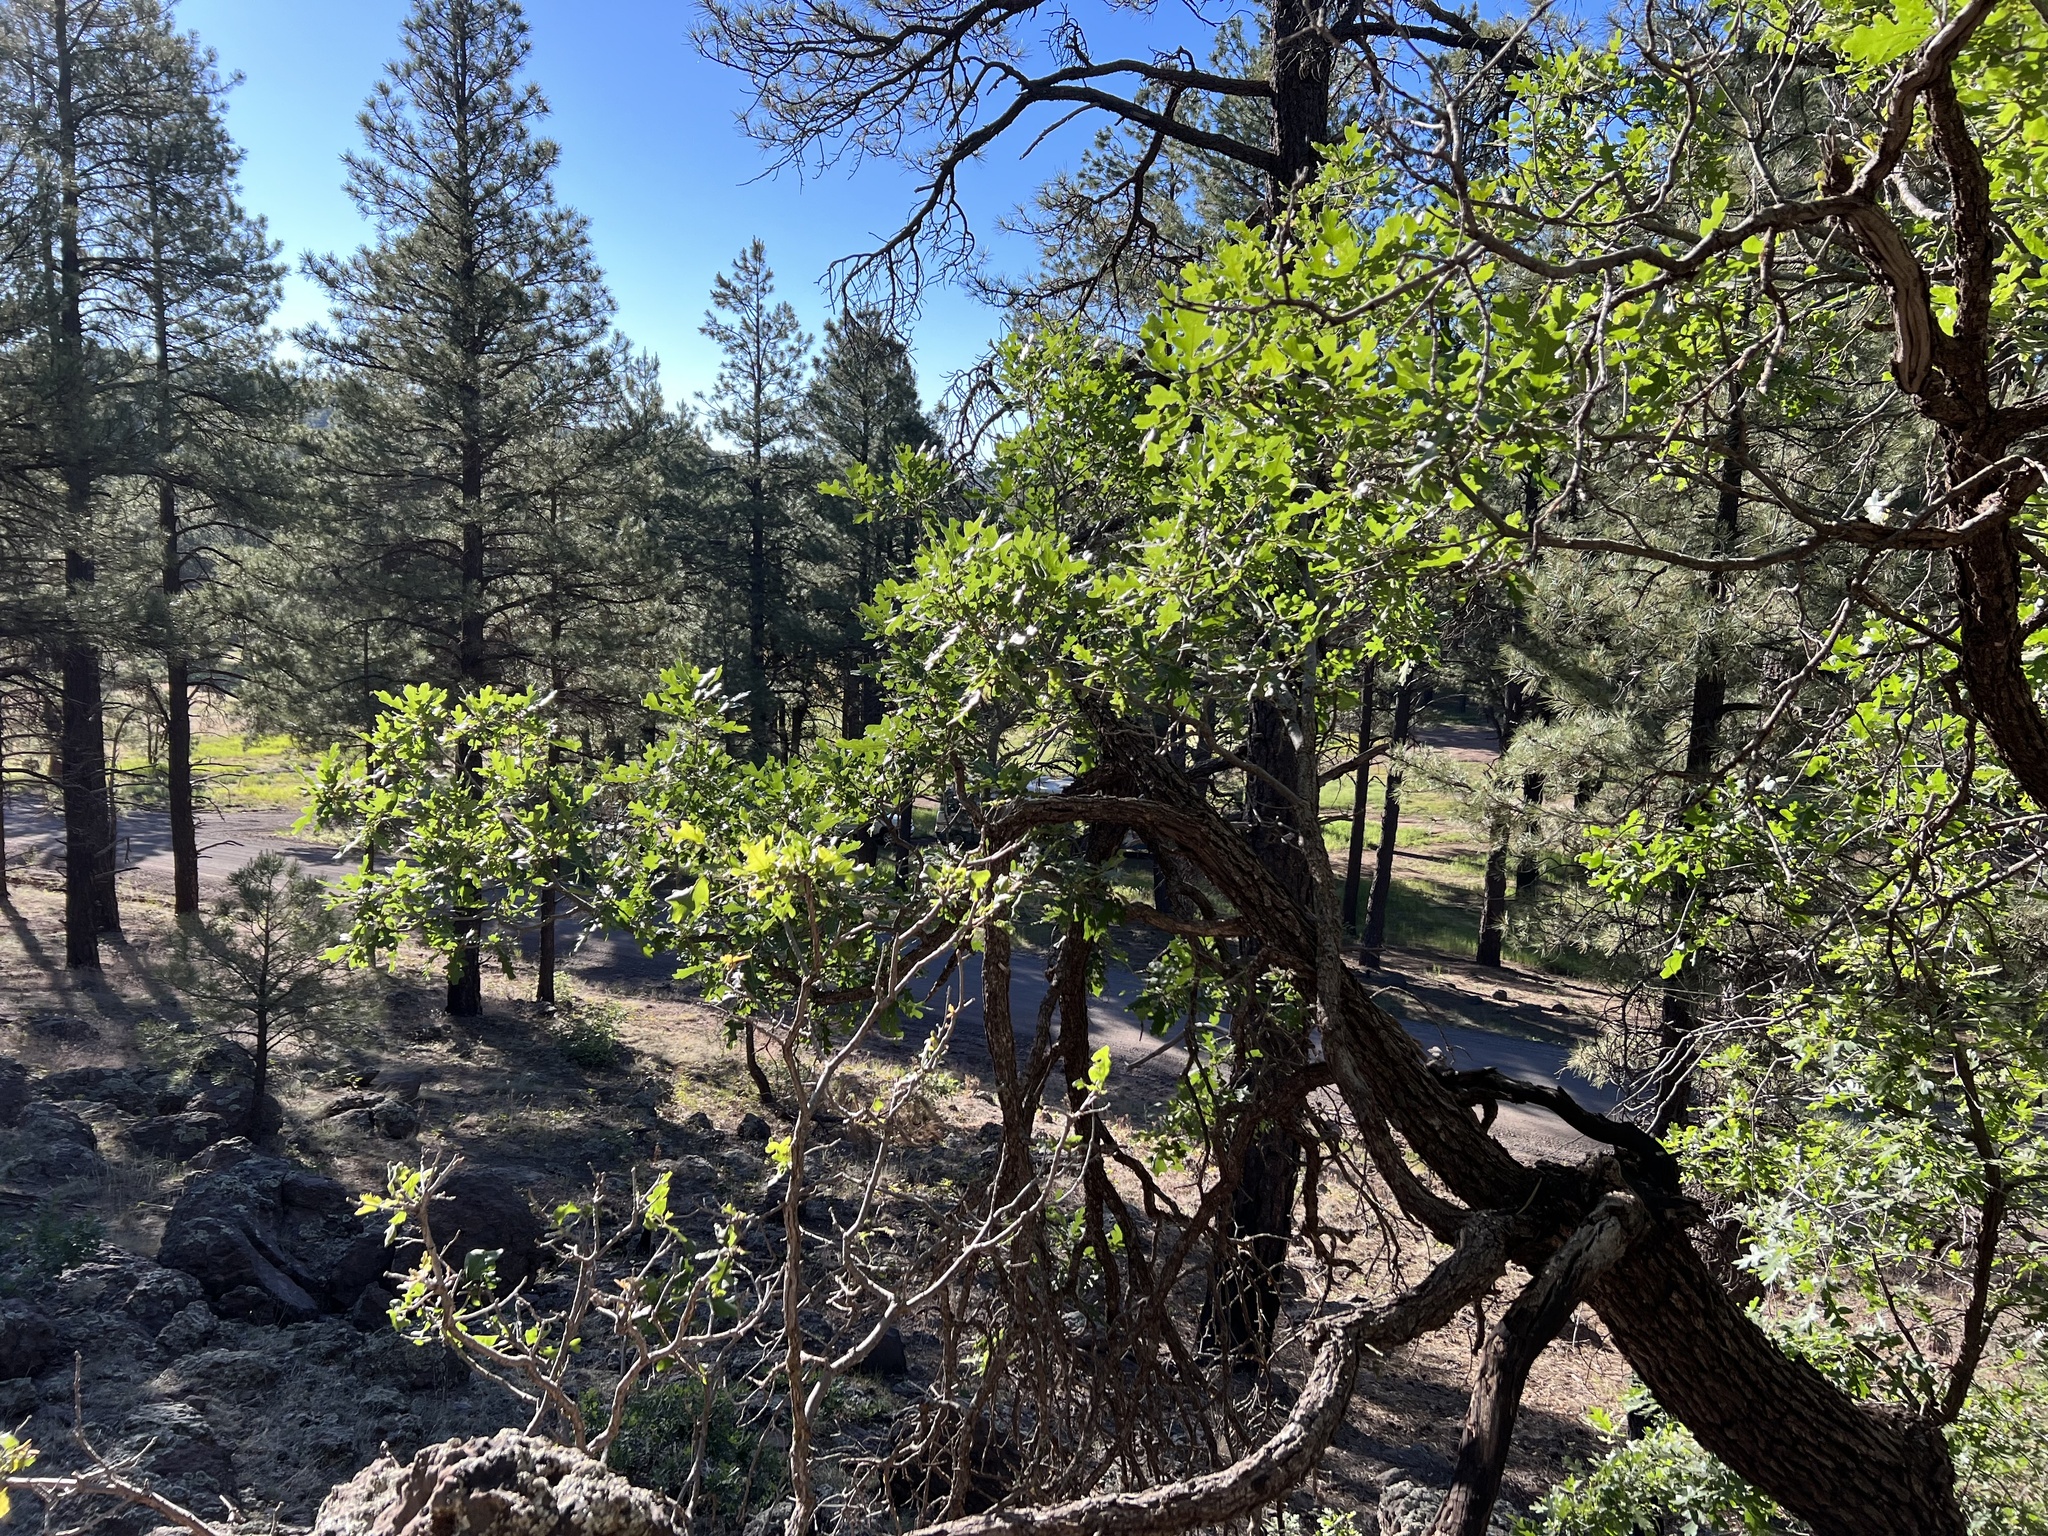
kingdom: Plantae
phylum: Tracheophyta
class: Magnoliopsida
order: Fagales
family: Fagaceae
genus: Quercus
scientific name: Quercus gambelii
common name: Gambel oak
